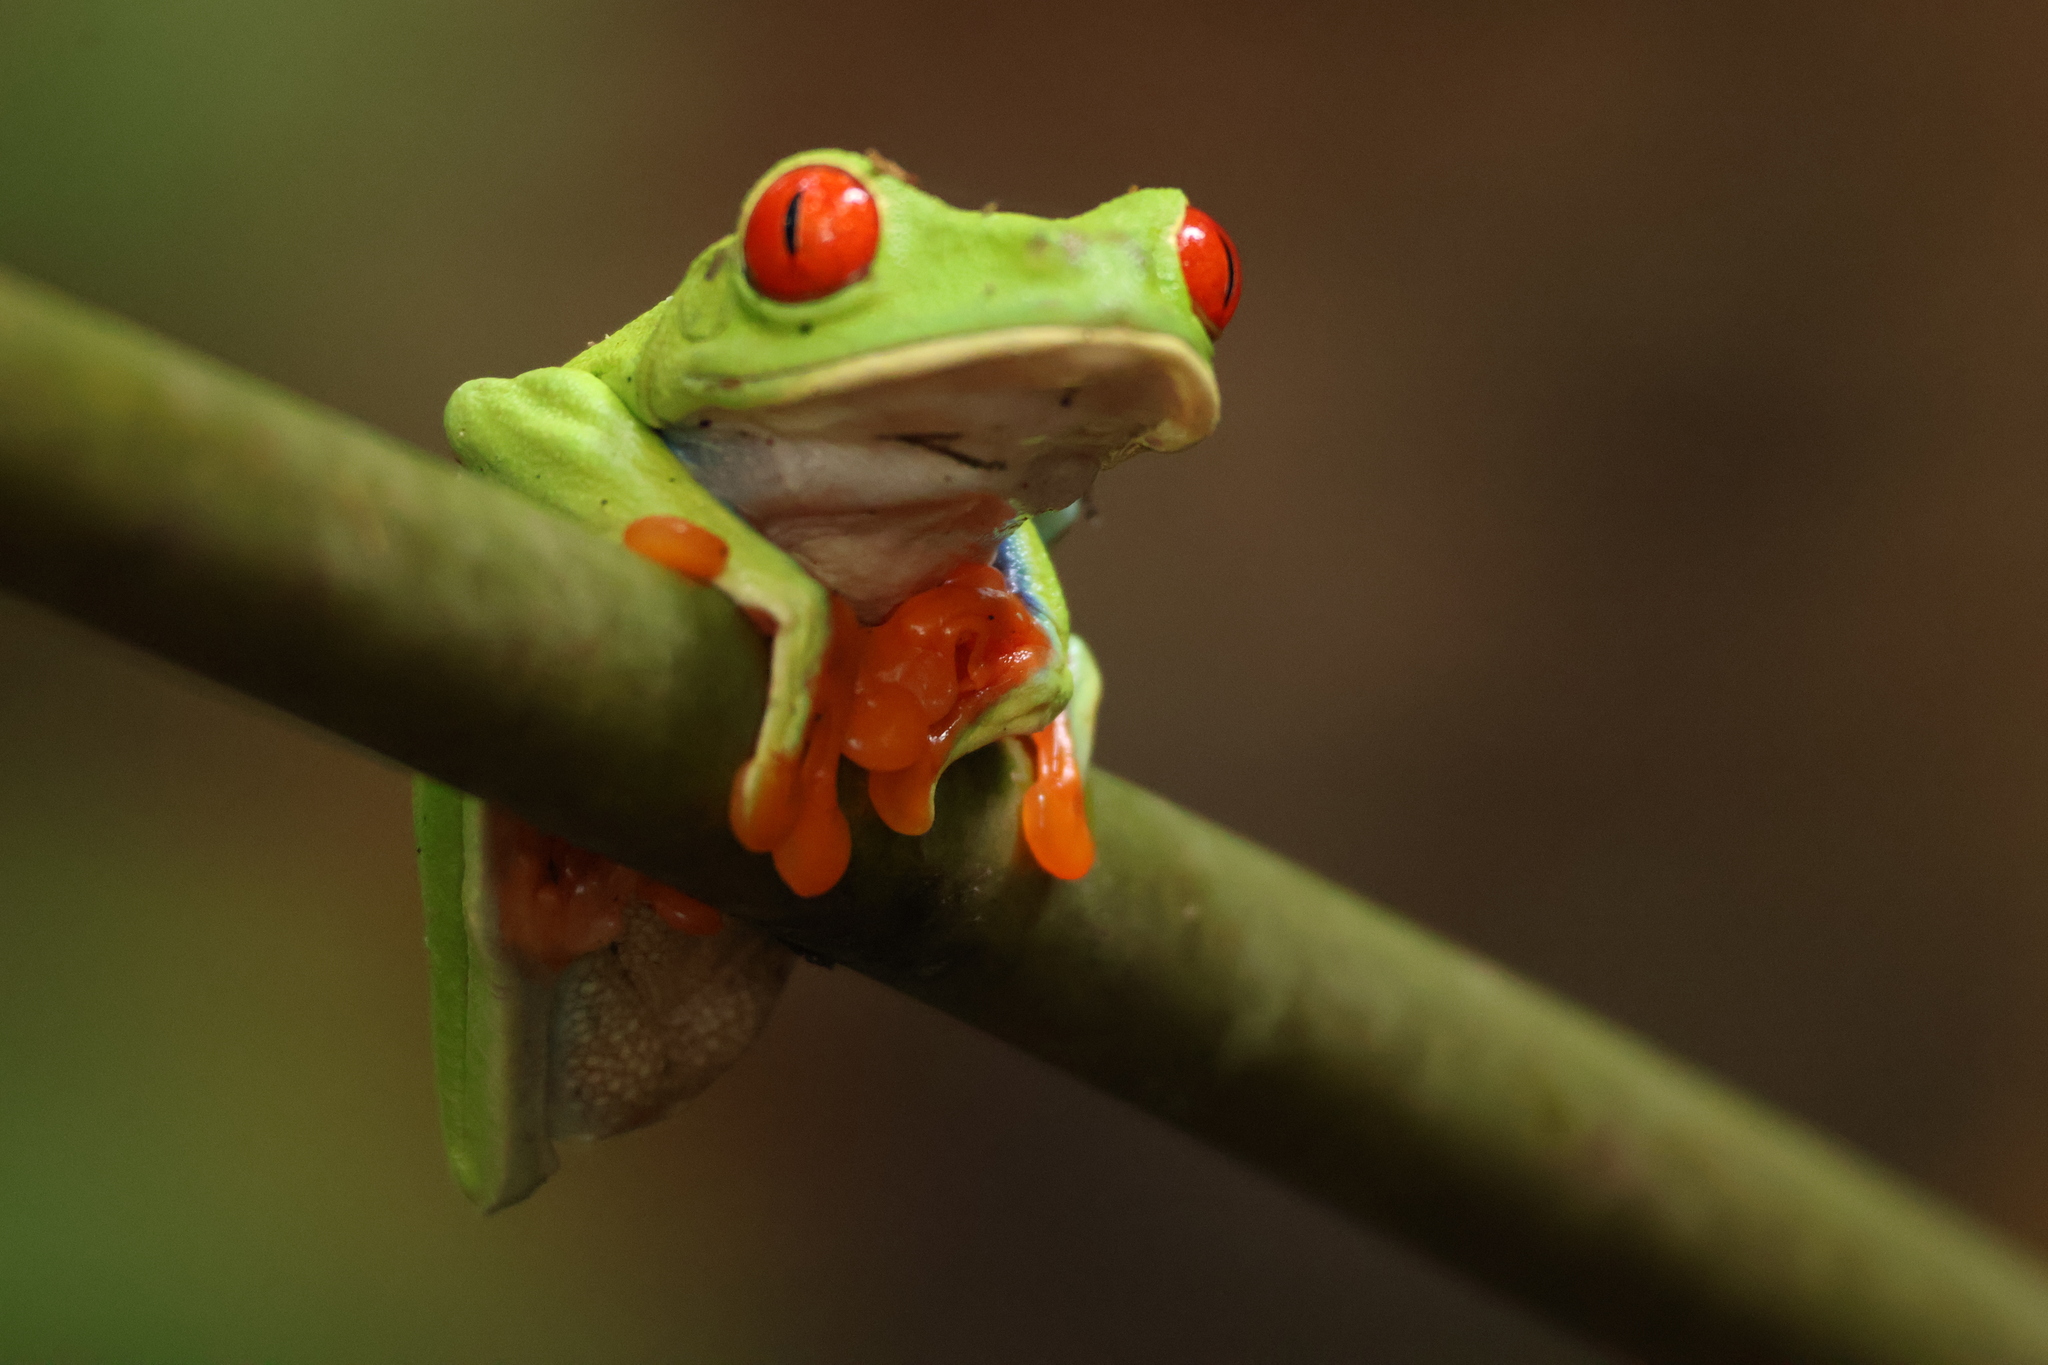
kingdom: Animalia
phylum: Chordata
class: Amphibia
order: Anura
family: Phyllomedusidae
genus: Agalychnis
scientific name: Agalychnis callidryas
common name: Red-eyed treefrog
